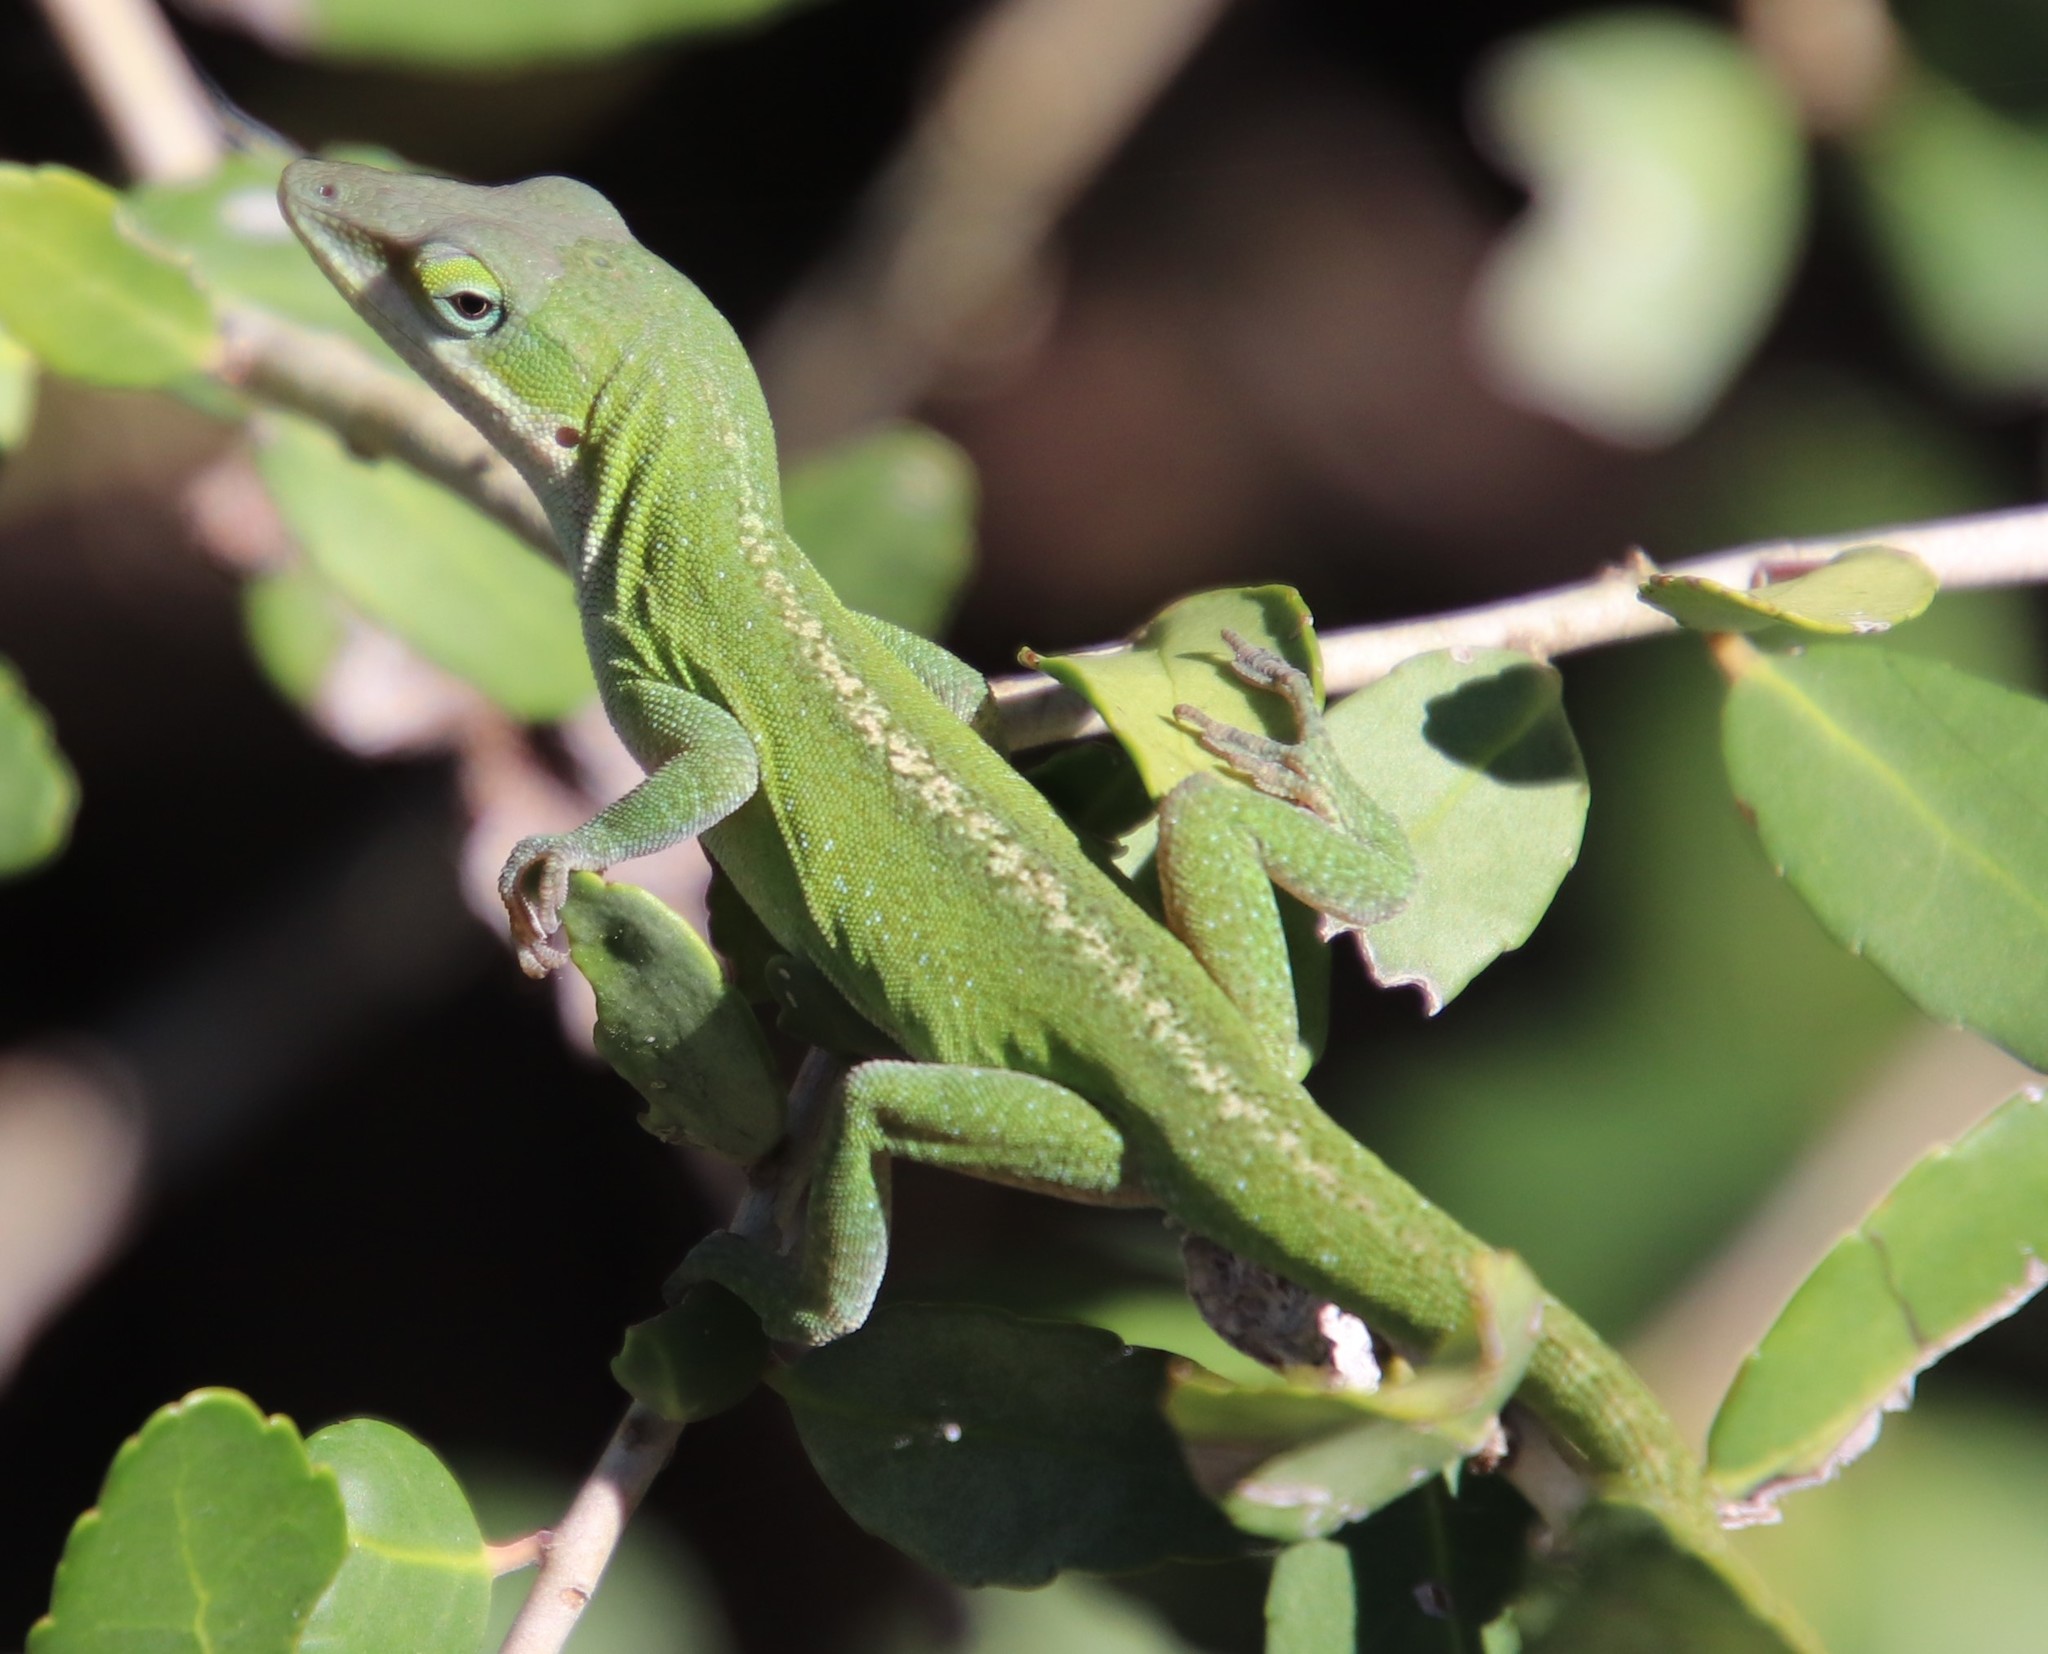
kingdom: Animalia
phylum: Chordata
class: Squamata
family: Dactyloidae
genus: Anolis
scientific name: Anolis carolinensis
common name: Green anole
